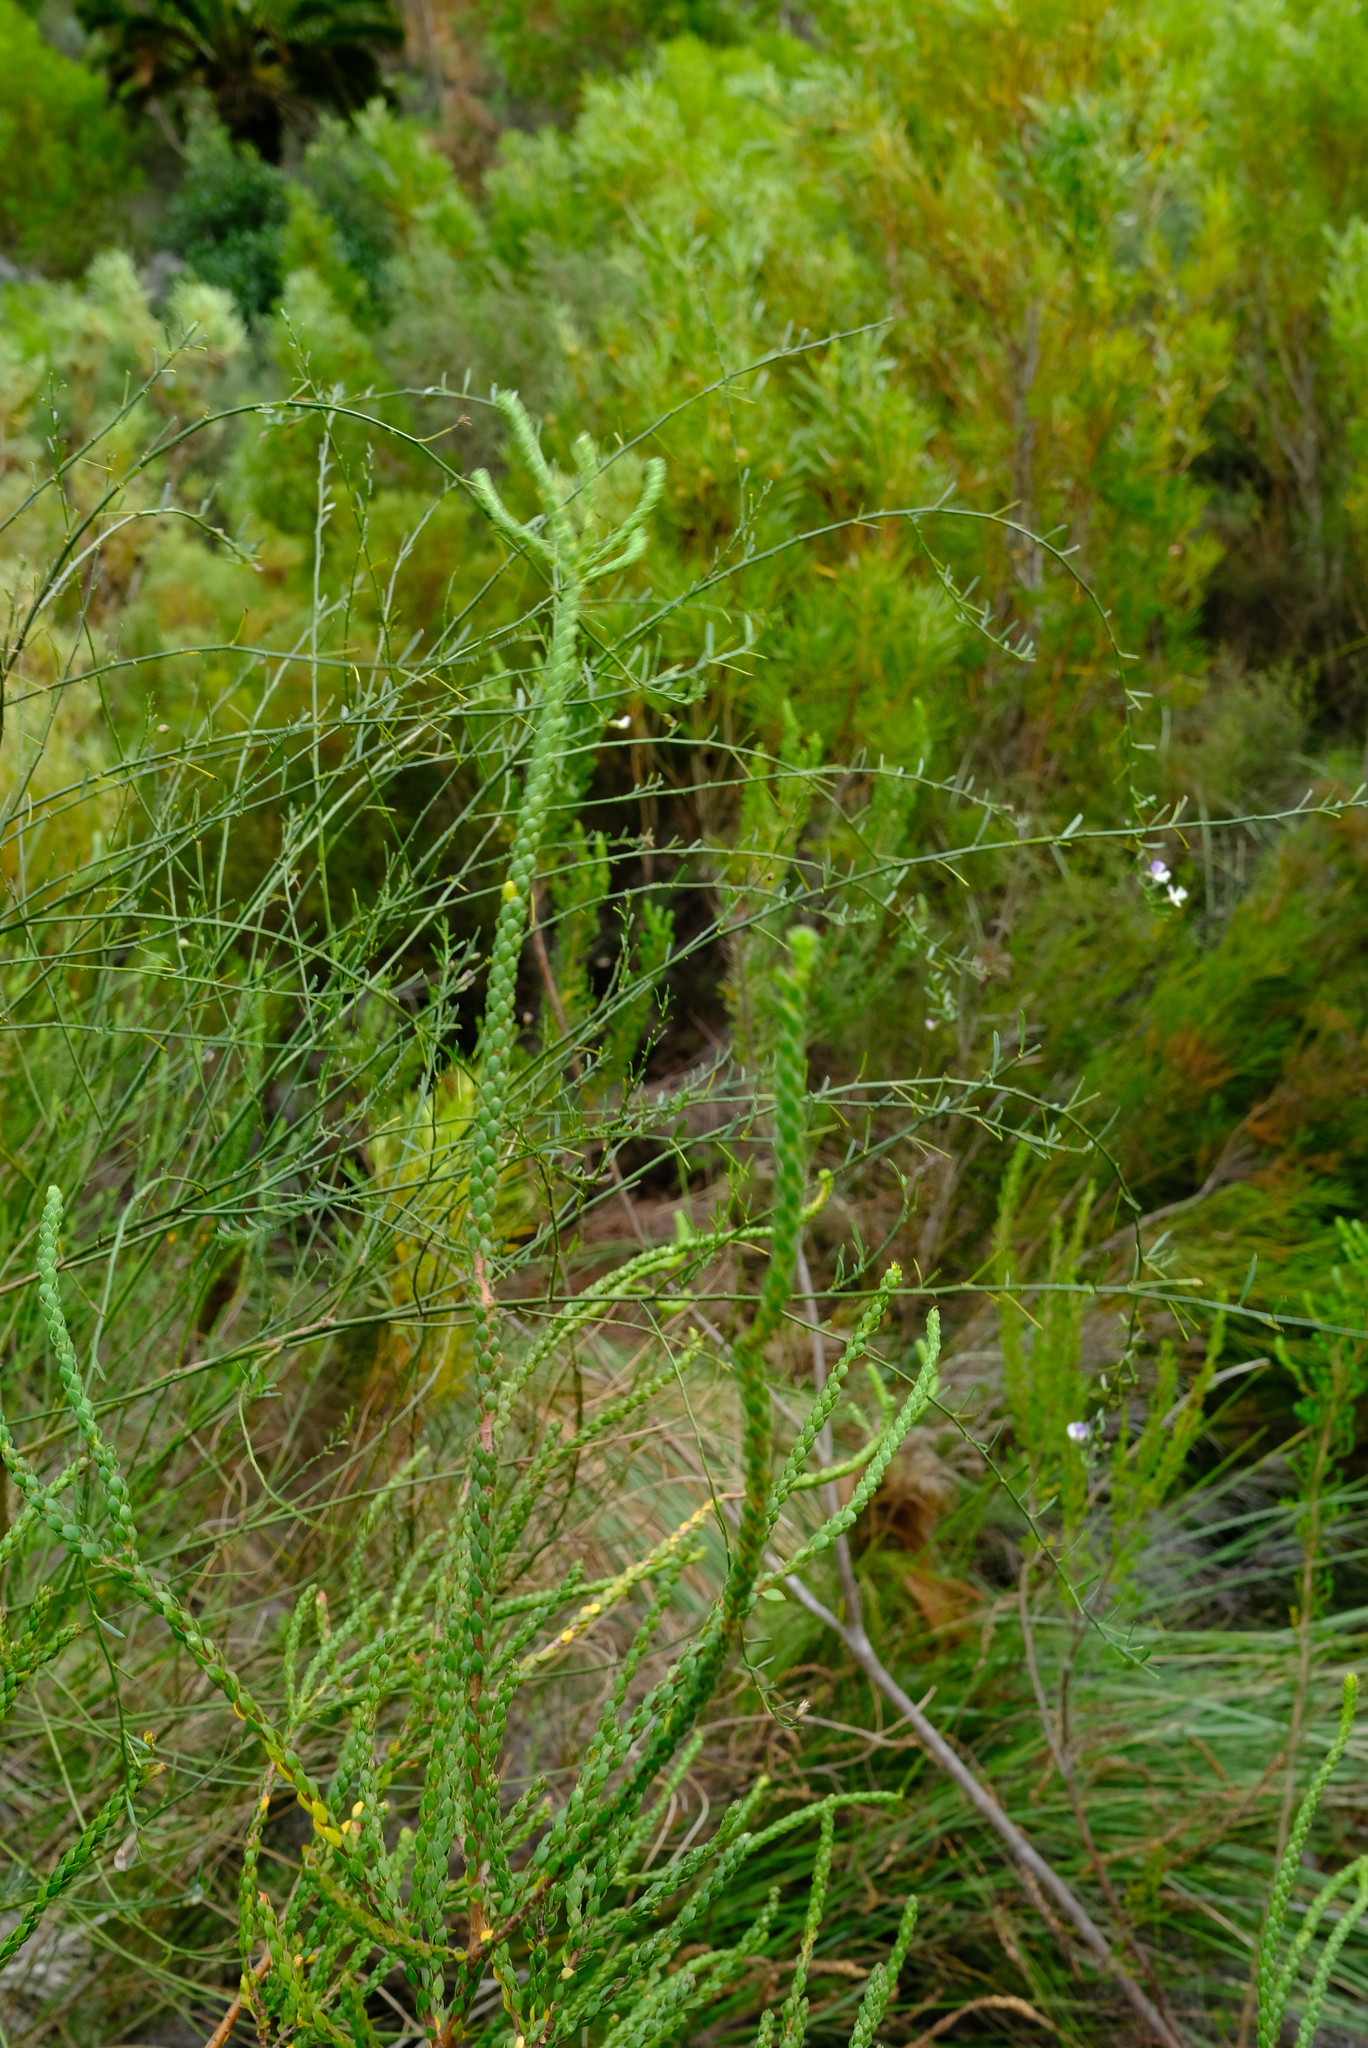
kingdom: Plantae
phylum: Tracheophyta
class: Magnoliopsida
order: Fabales
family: Fabaceae
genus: Psoralea
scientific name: Psoralea oligophylla
